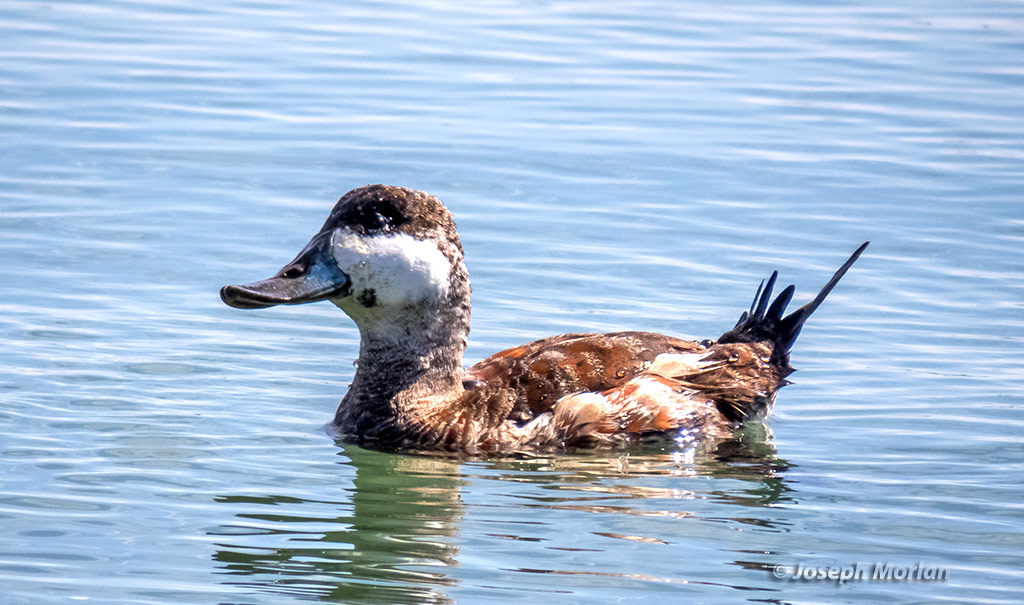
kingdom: Animalia
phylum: Chordata
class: Aves
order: Anseriformes
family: Anatidae
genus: Oxyura
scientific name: Oxyura jamaicensis
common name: Ruddy duck
